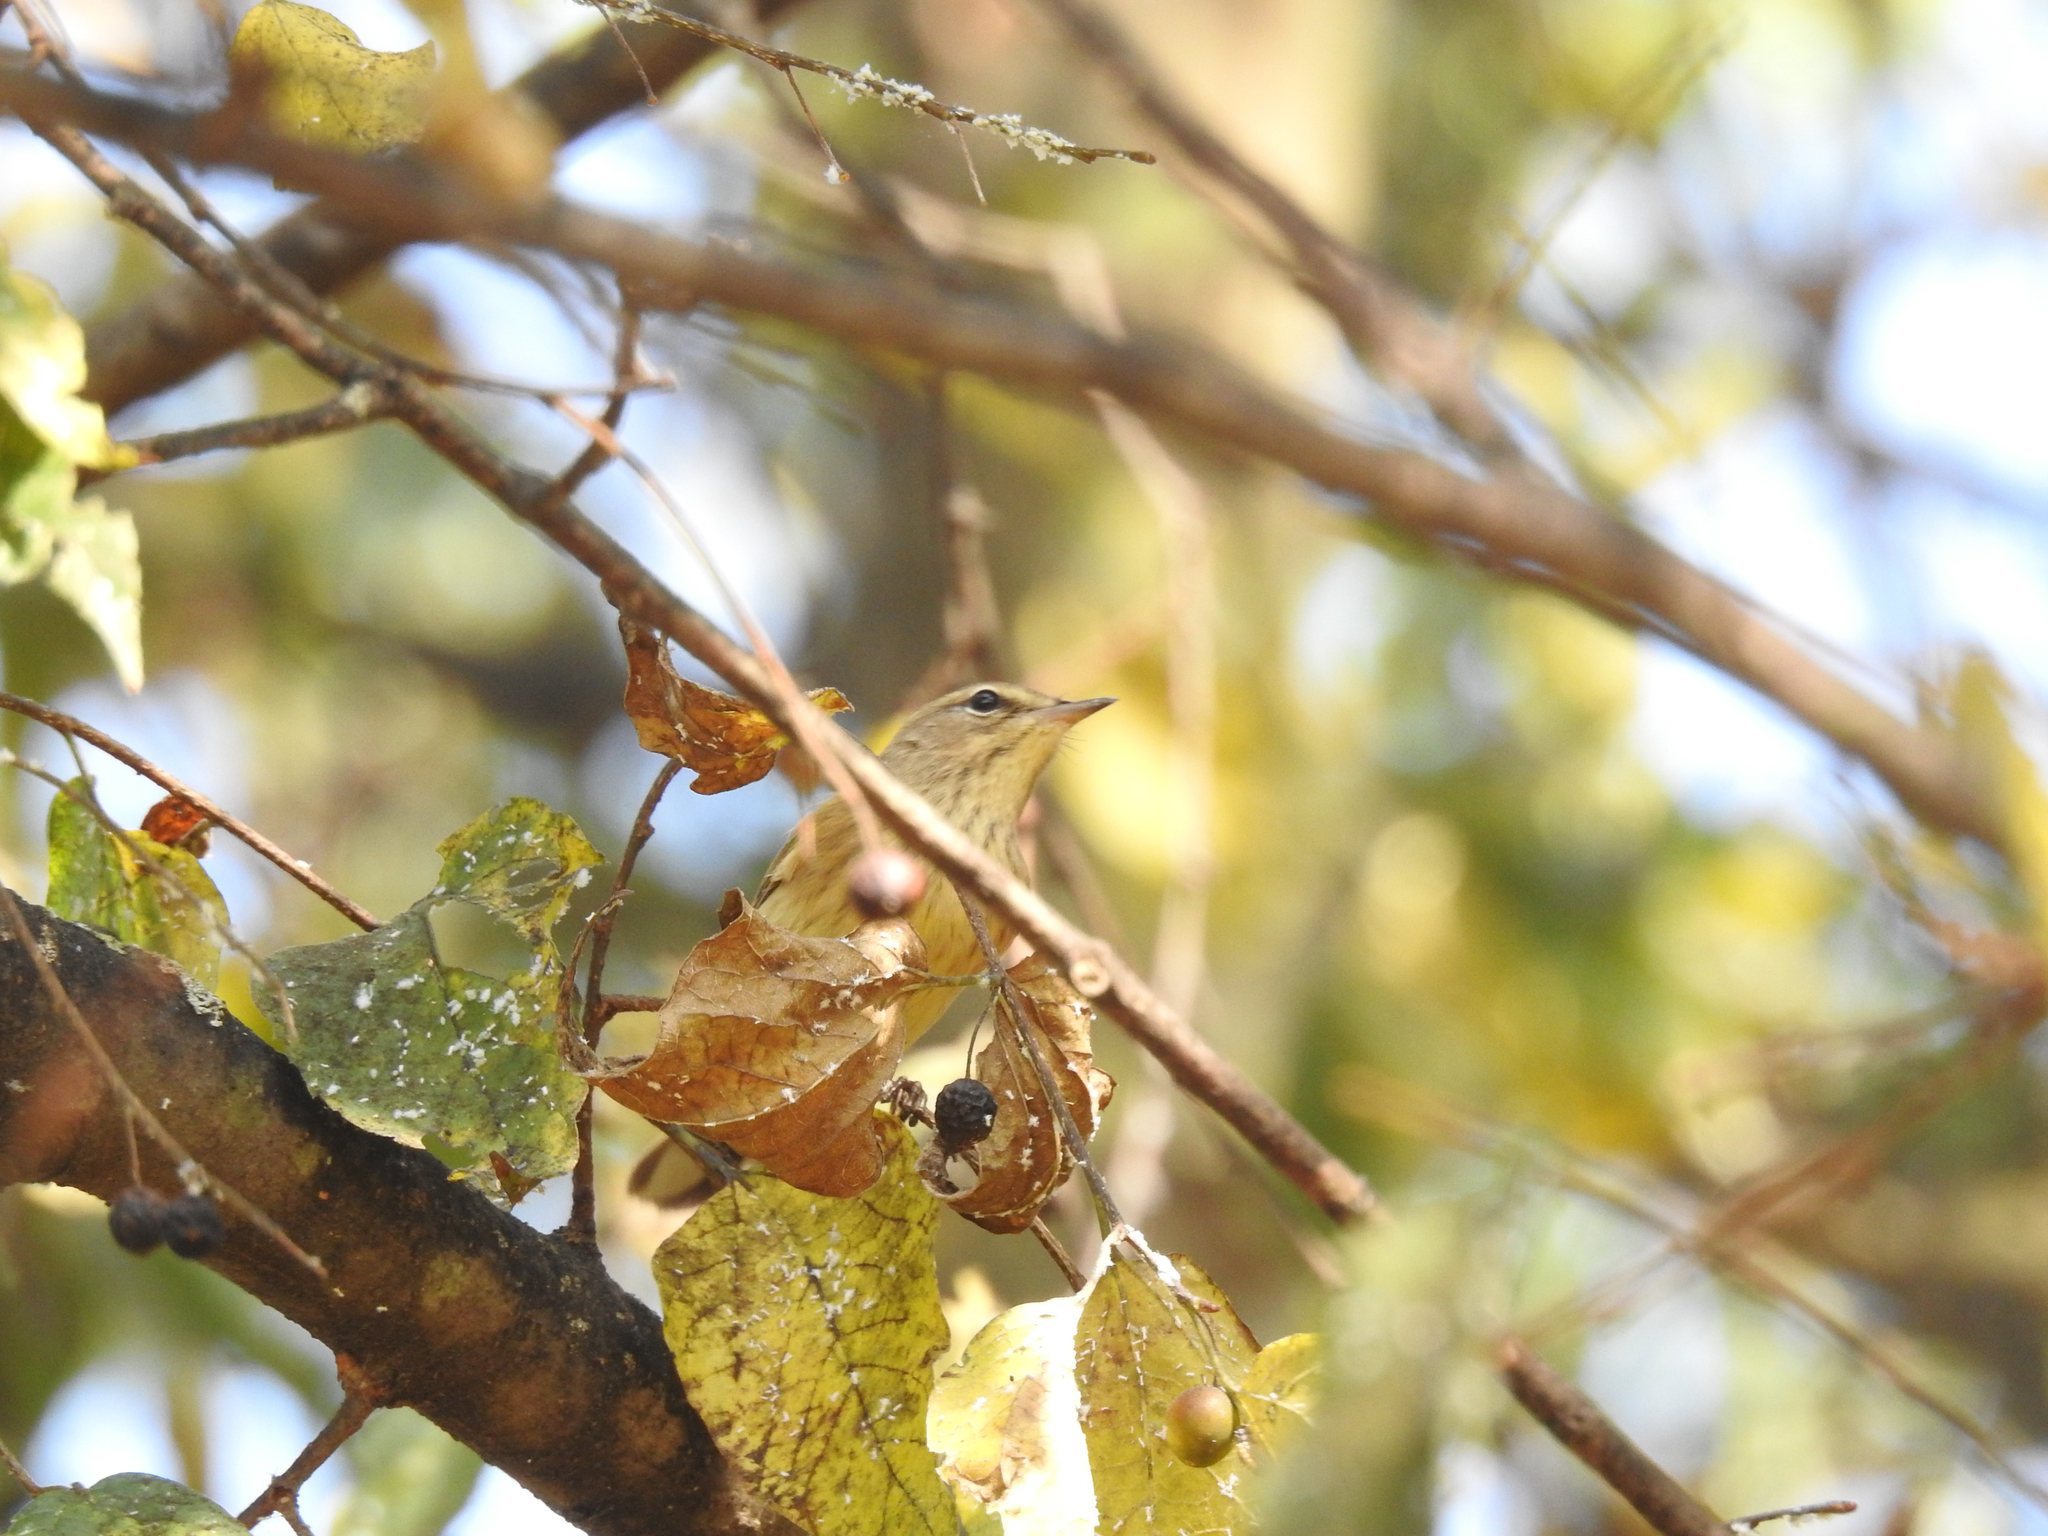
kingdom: Animalia
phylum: Chordata
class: Aves
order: Passeriformes
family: Parulidae
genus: Setophaga
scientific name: Setophaga palmarum
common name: Palm warbler
